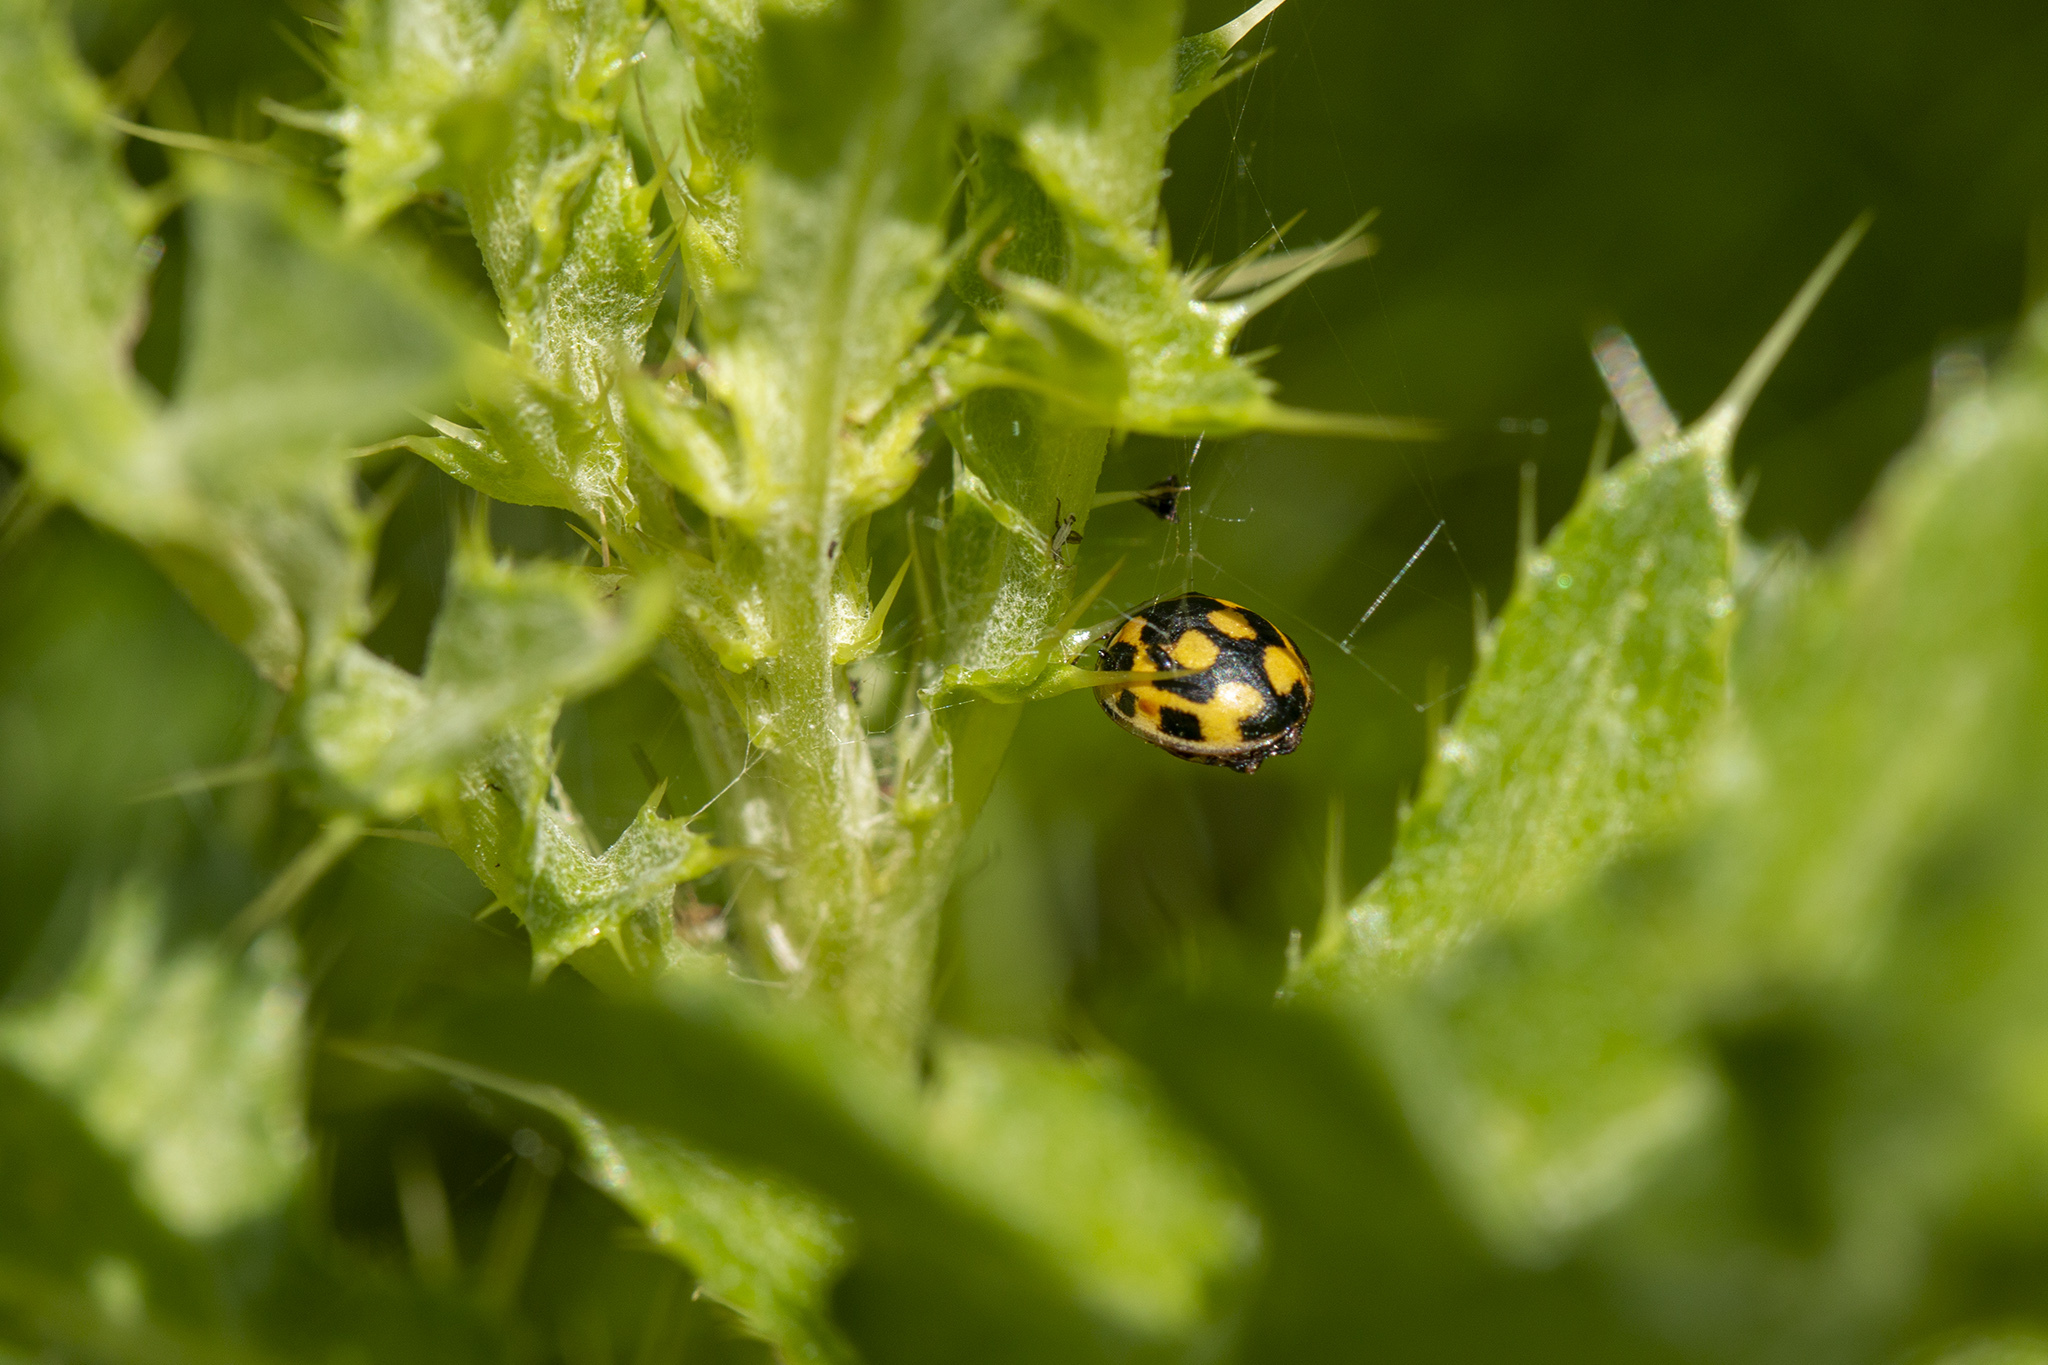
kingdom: Animalia
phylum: Arthropoda
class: Insecta
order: Coleoptera
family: Coccinellidae
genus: Propylaea
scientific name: Propylaea quatuordecimpunctata
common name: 14-spotted ladybird beetle
